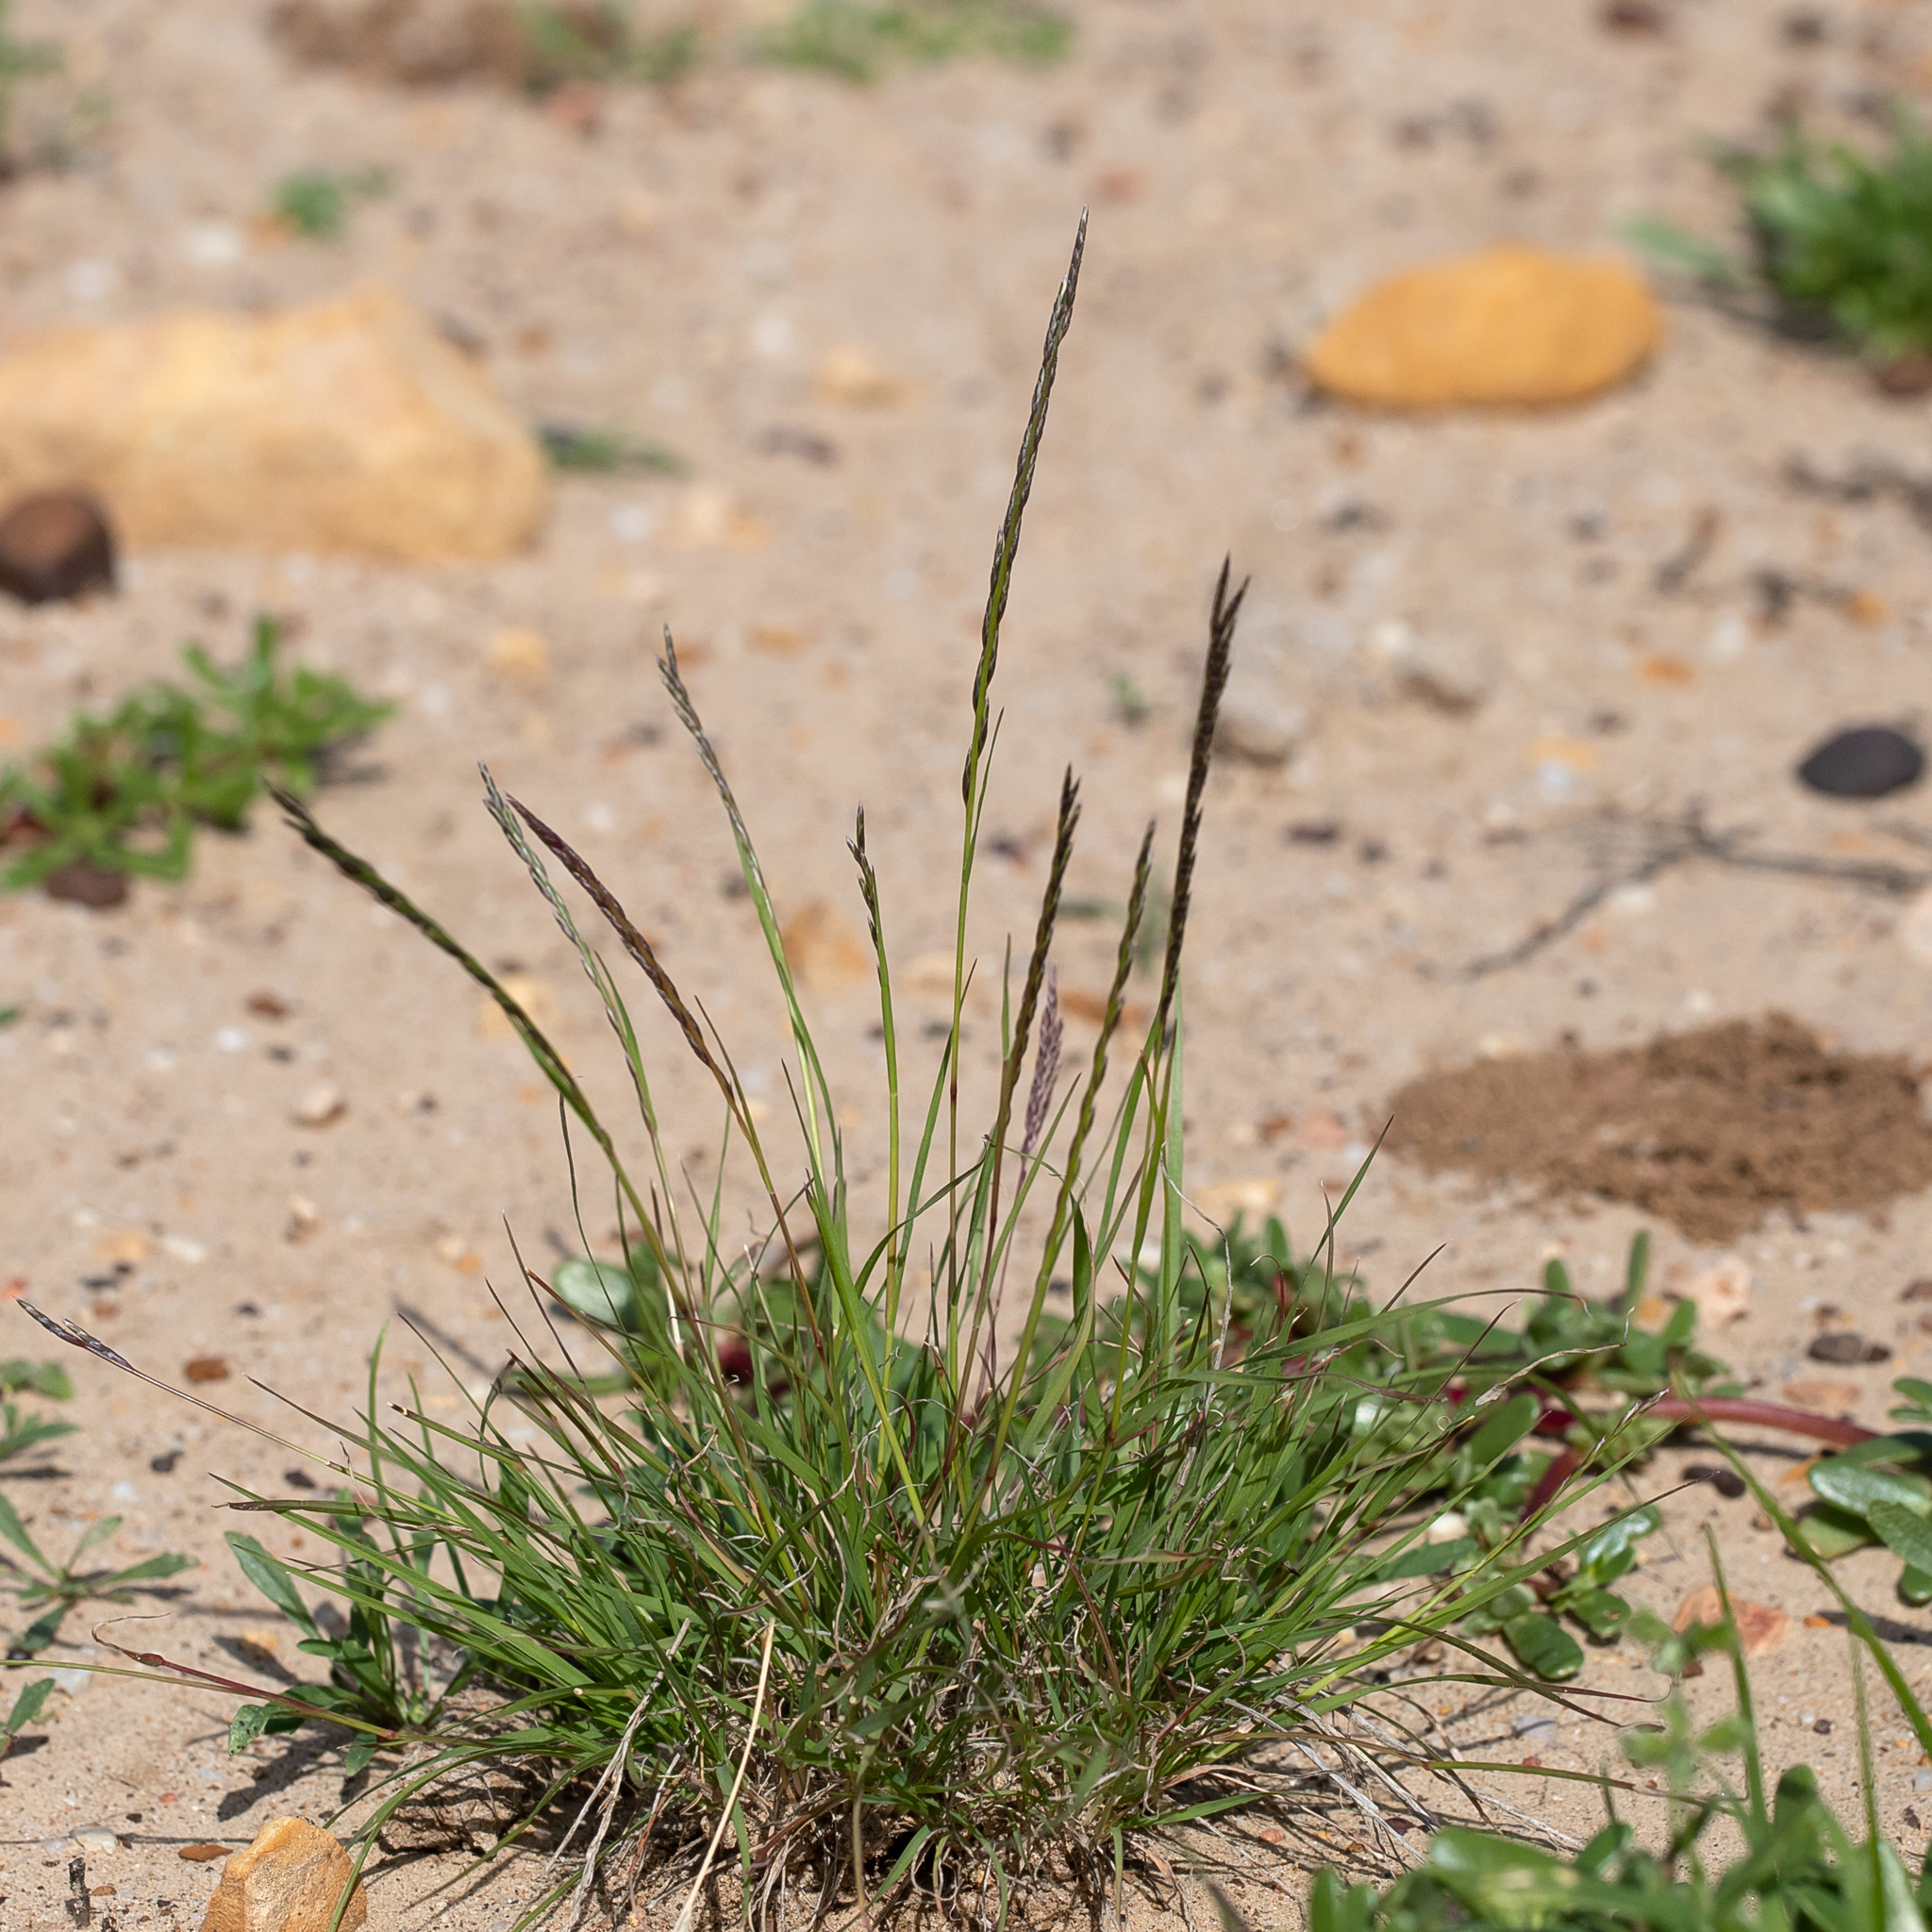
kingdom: Plantae
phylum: Tracheophyta
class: Liliopsida
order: Poales
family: Poaceae
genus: Tripogonella
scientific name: Tripogonella loliiformis
